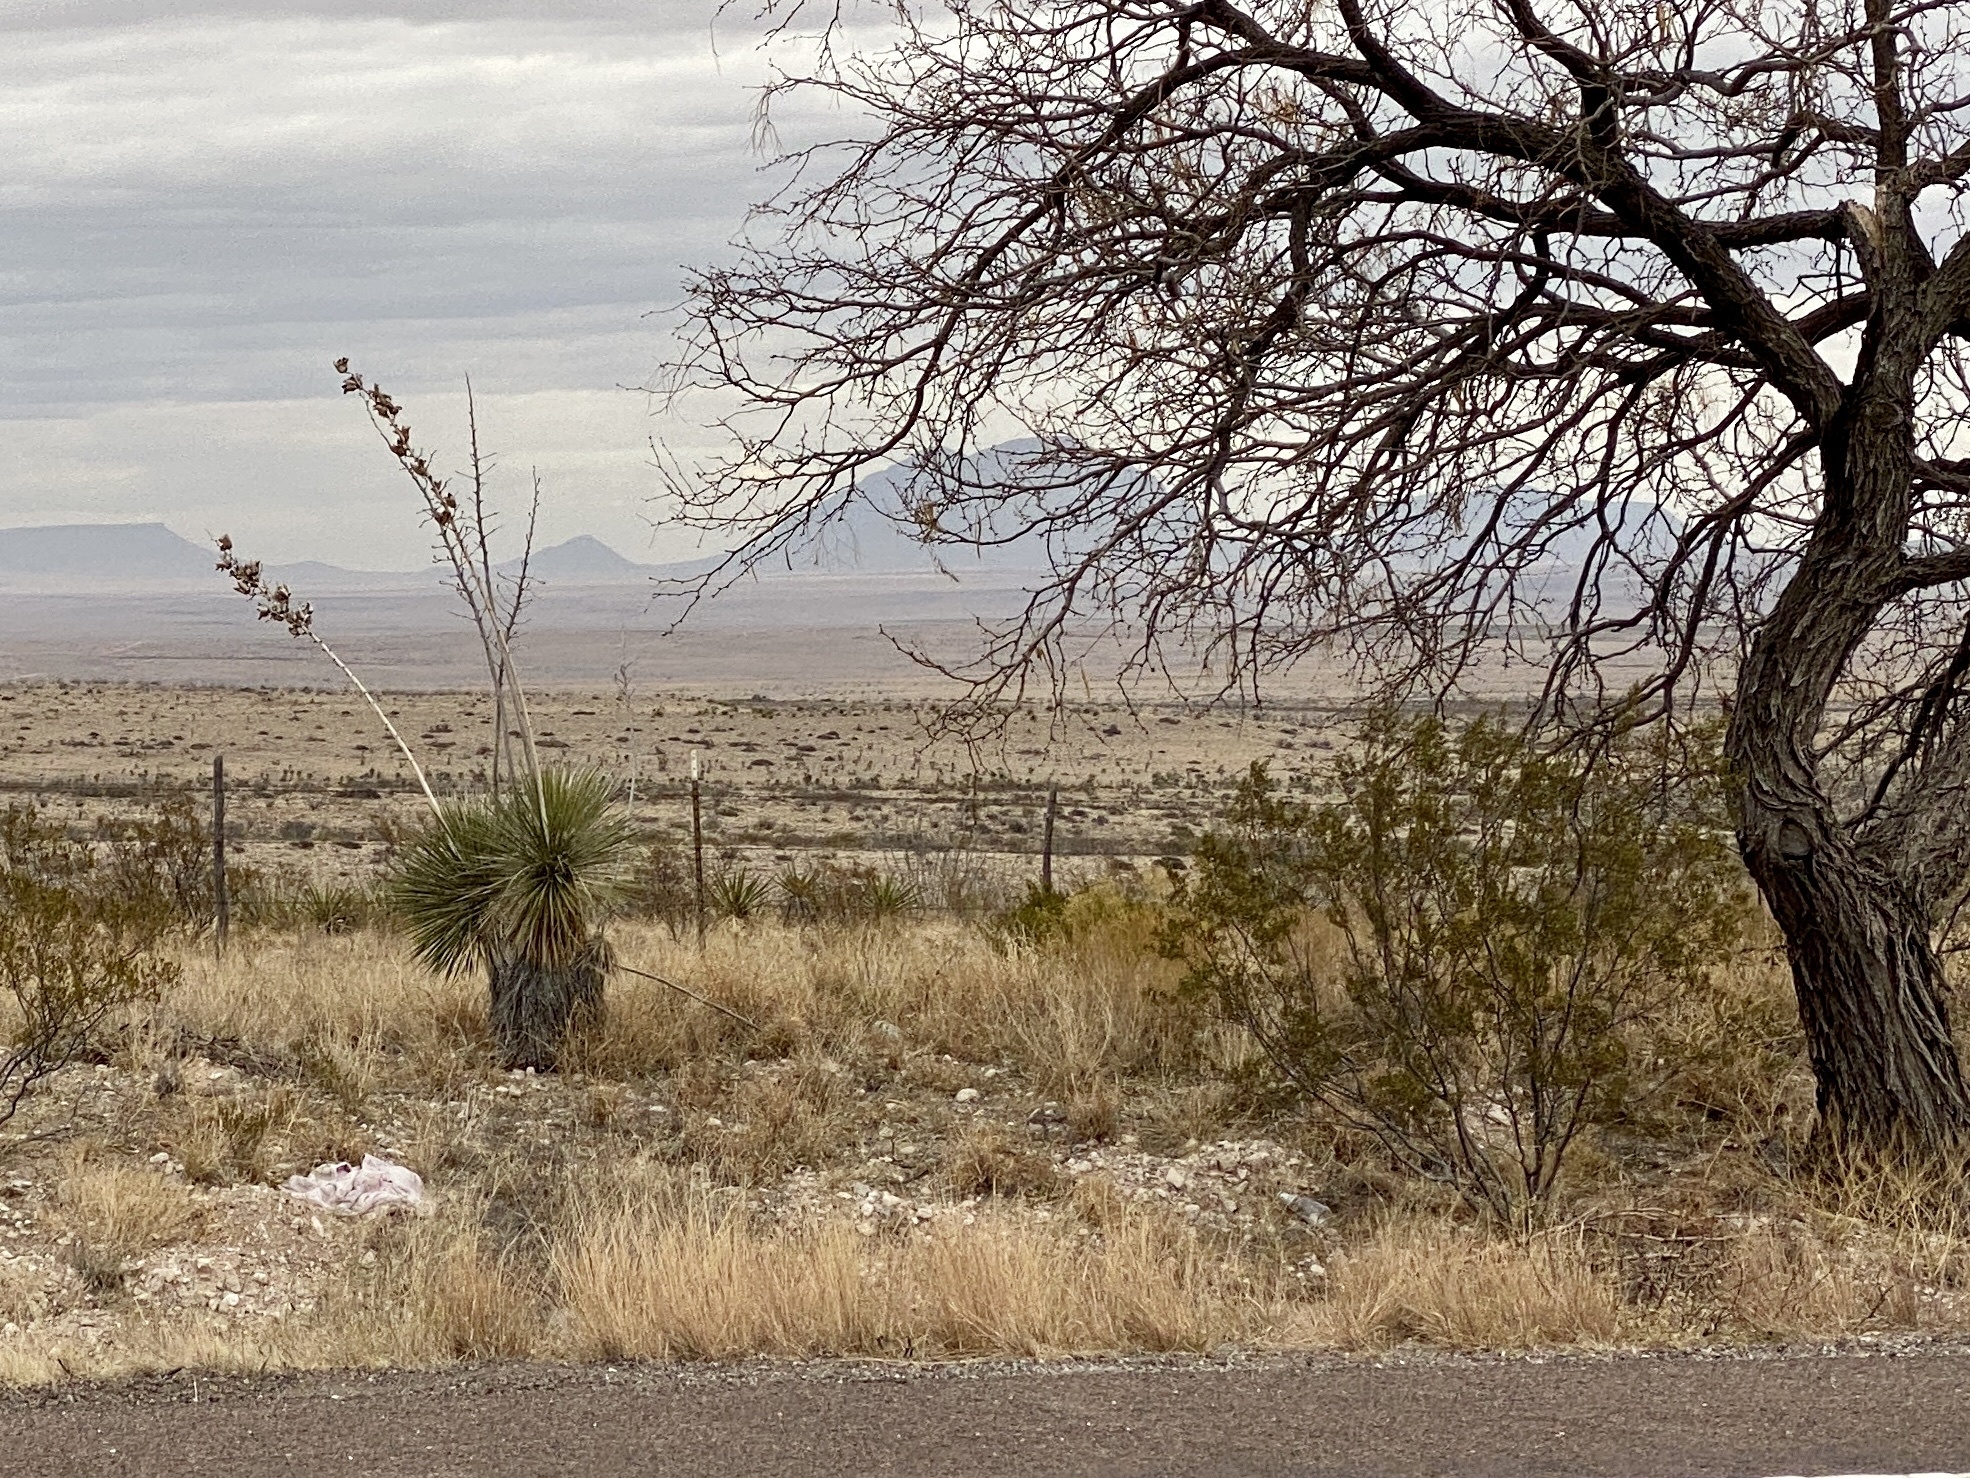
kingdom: Plantae
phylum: Tracheophyta
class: Liliopsida
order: Asparagales
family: Asparagaceae
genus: Yucca
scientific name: Yucca elata
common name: Palmella
